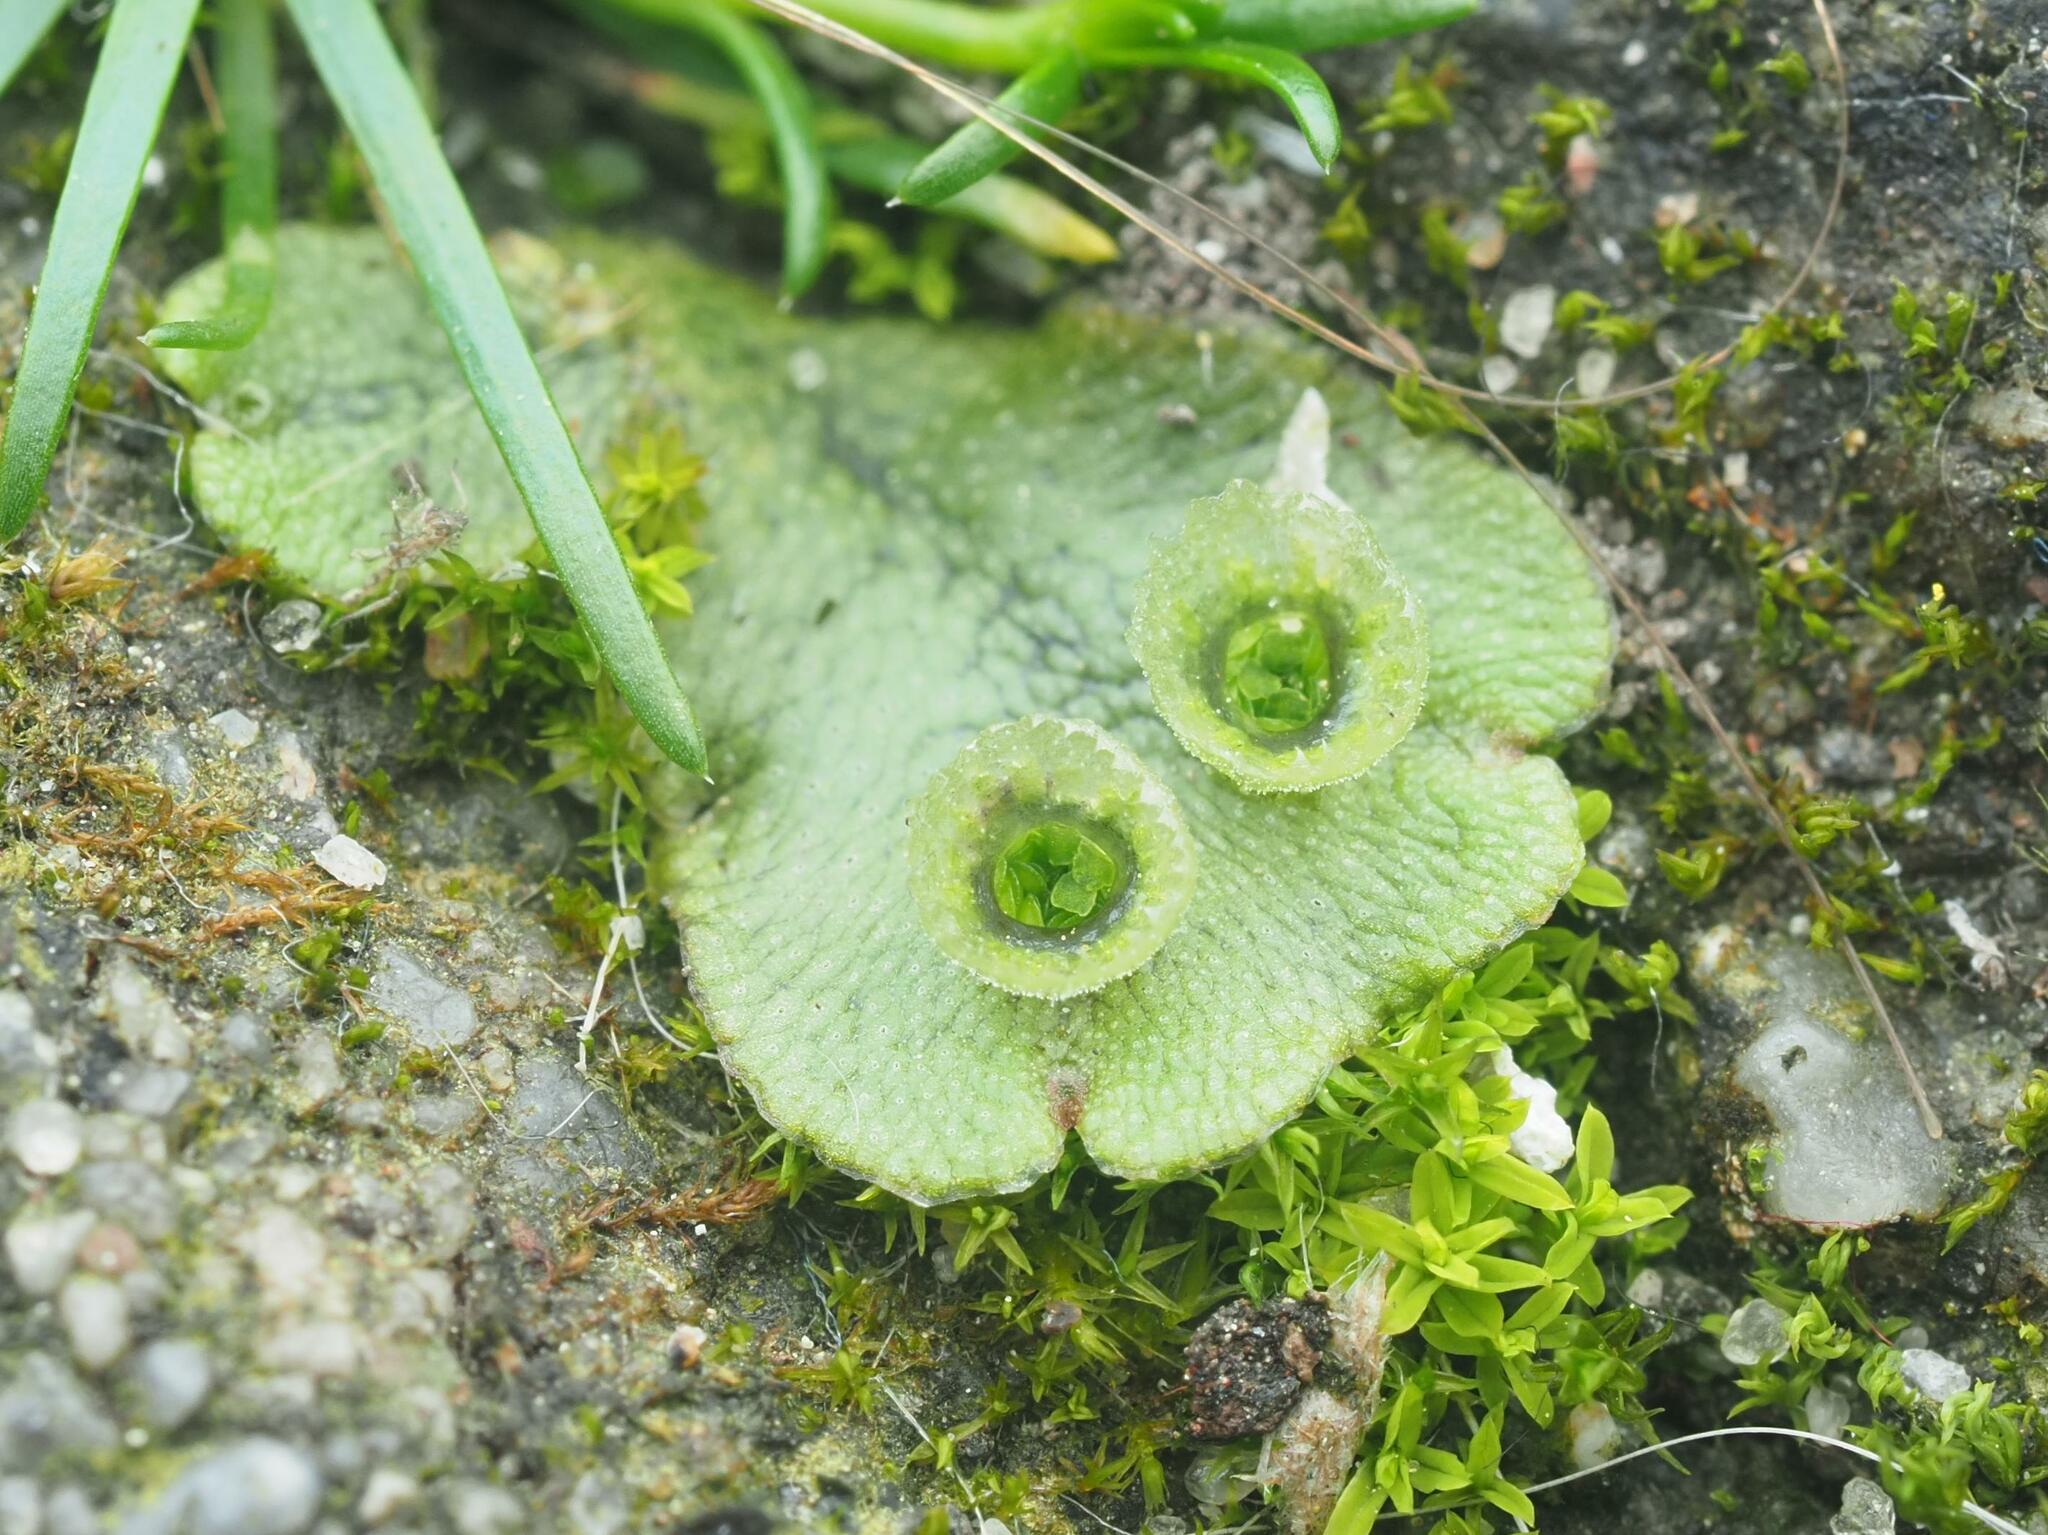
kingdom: Plantae
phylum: Marchantiophyta
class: Marchantiopsida
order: Marchantiales
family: Marchantiaceae
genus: Marchantia
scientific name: Marchantia polymorpha
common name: Common liverwort
